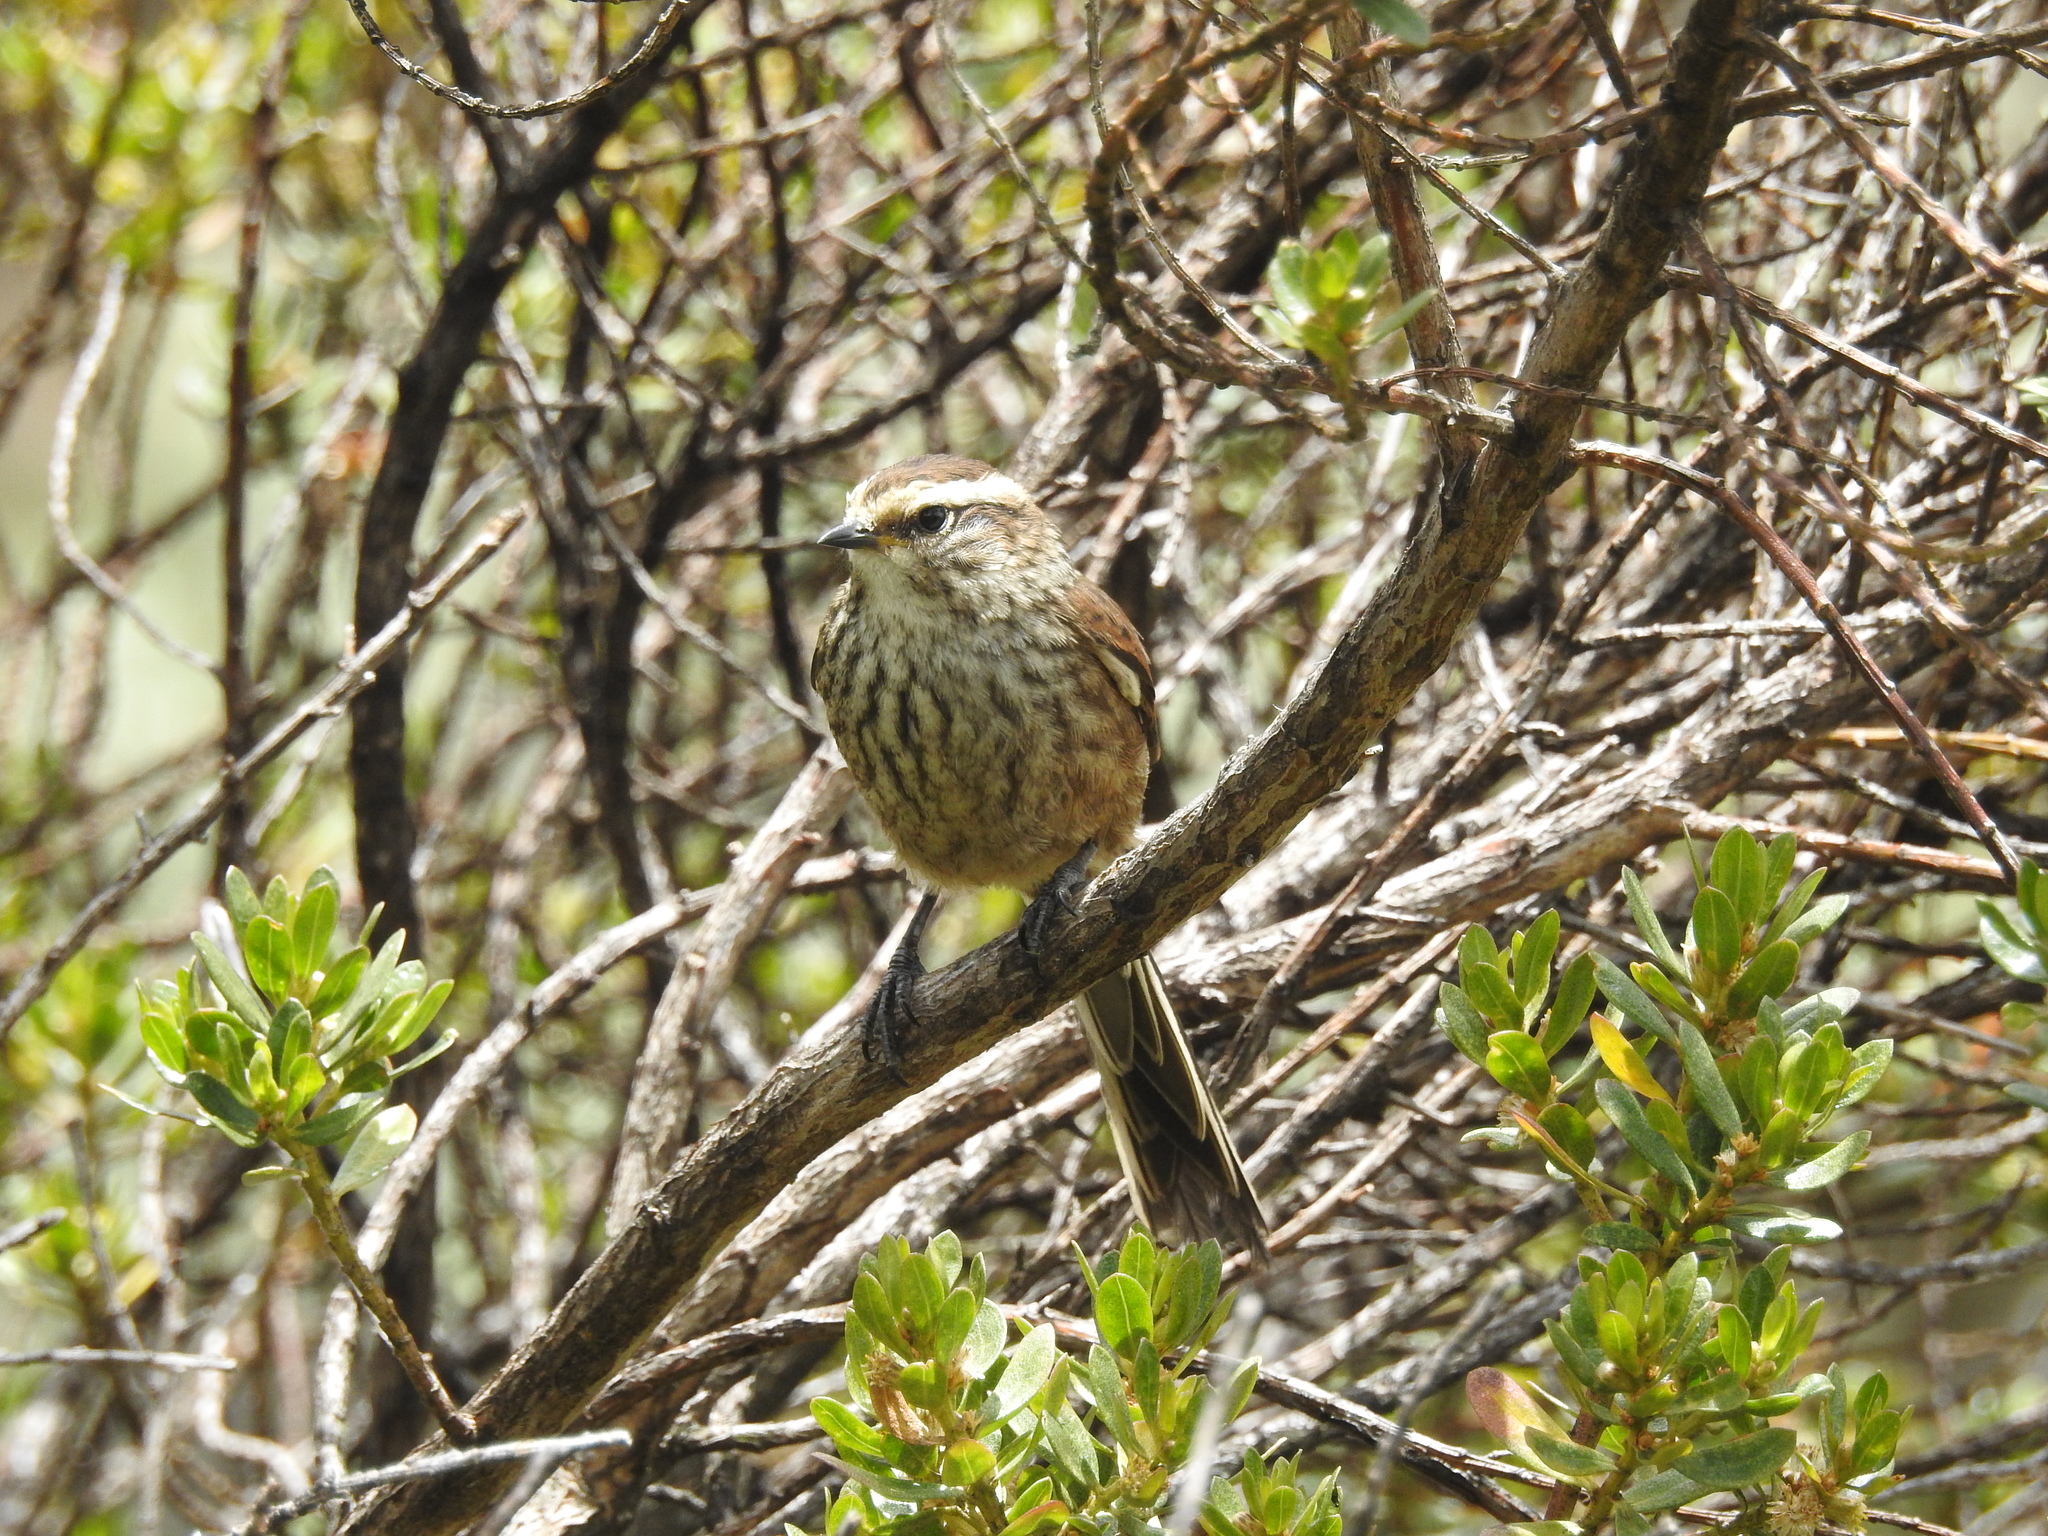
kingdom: Animalia
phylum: Chordata
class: Aves
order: Passeriformes
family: Furnariidae
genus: Leptasthenura
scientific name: Leptasthenura andicola
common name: Andean tit-spinetail
